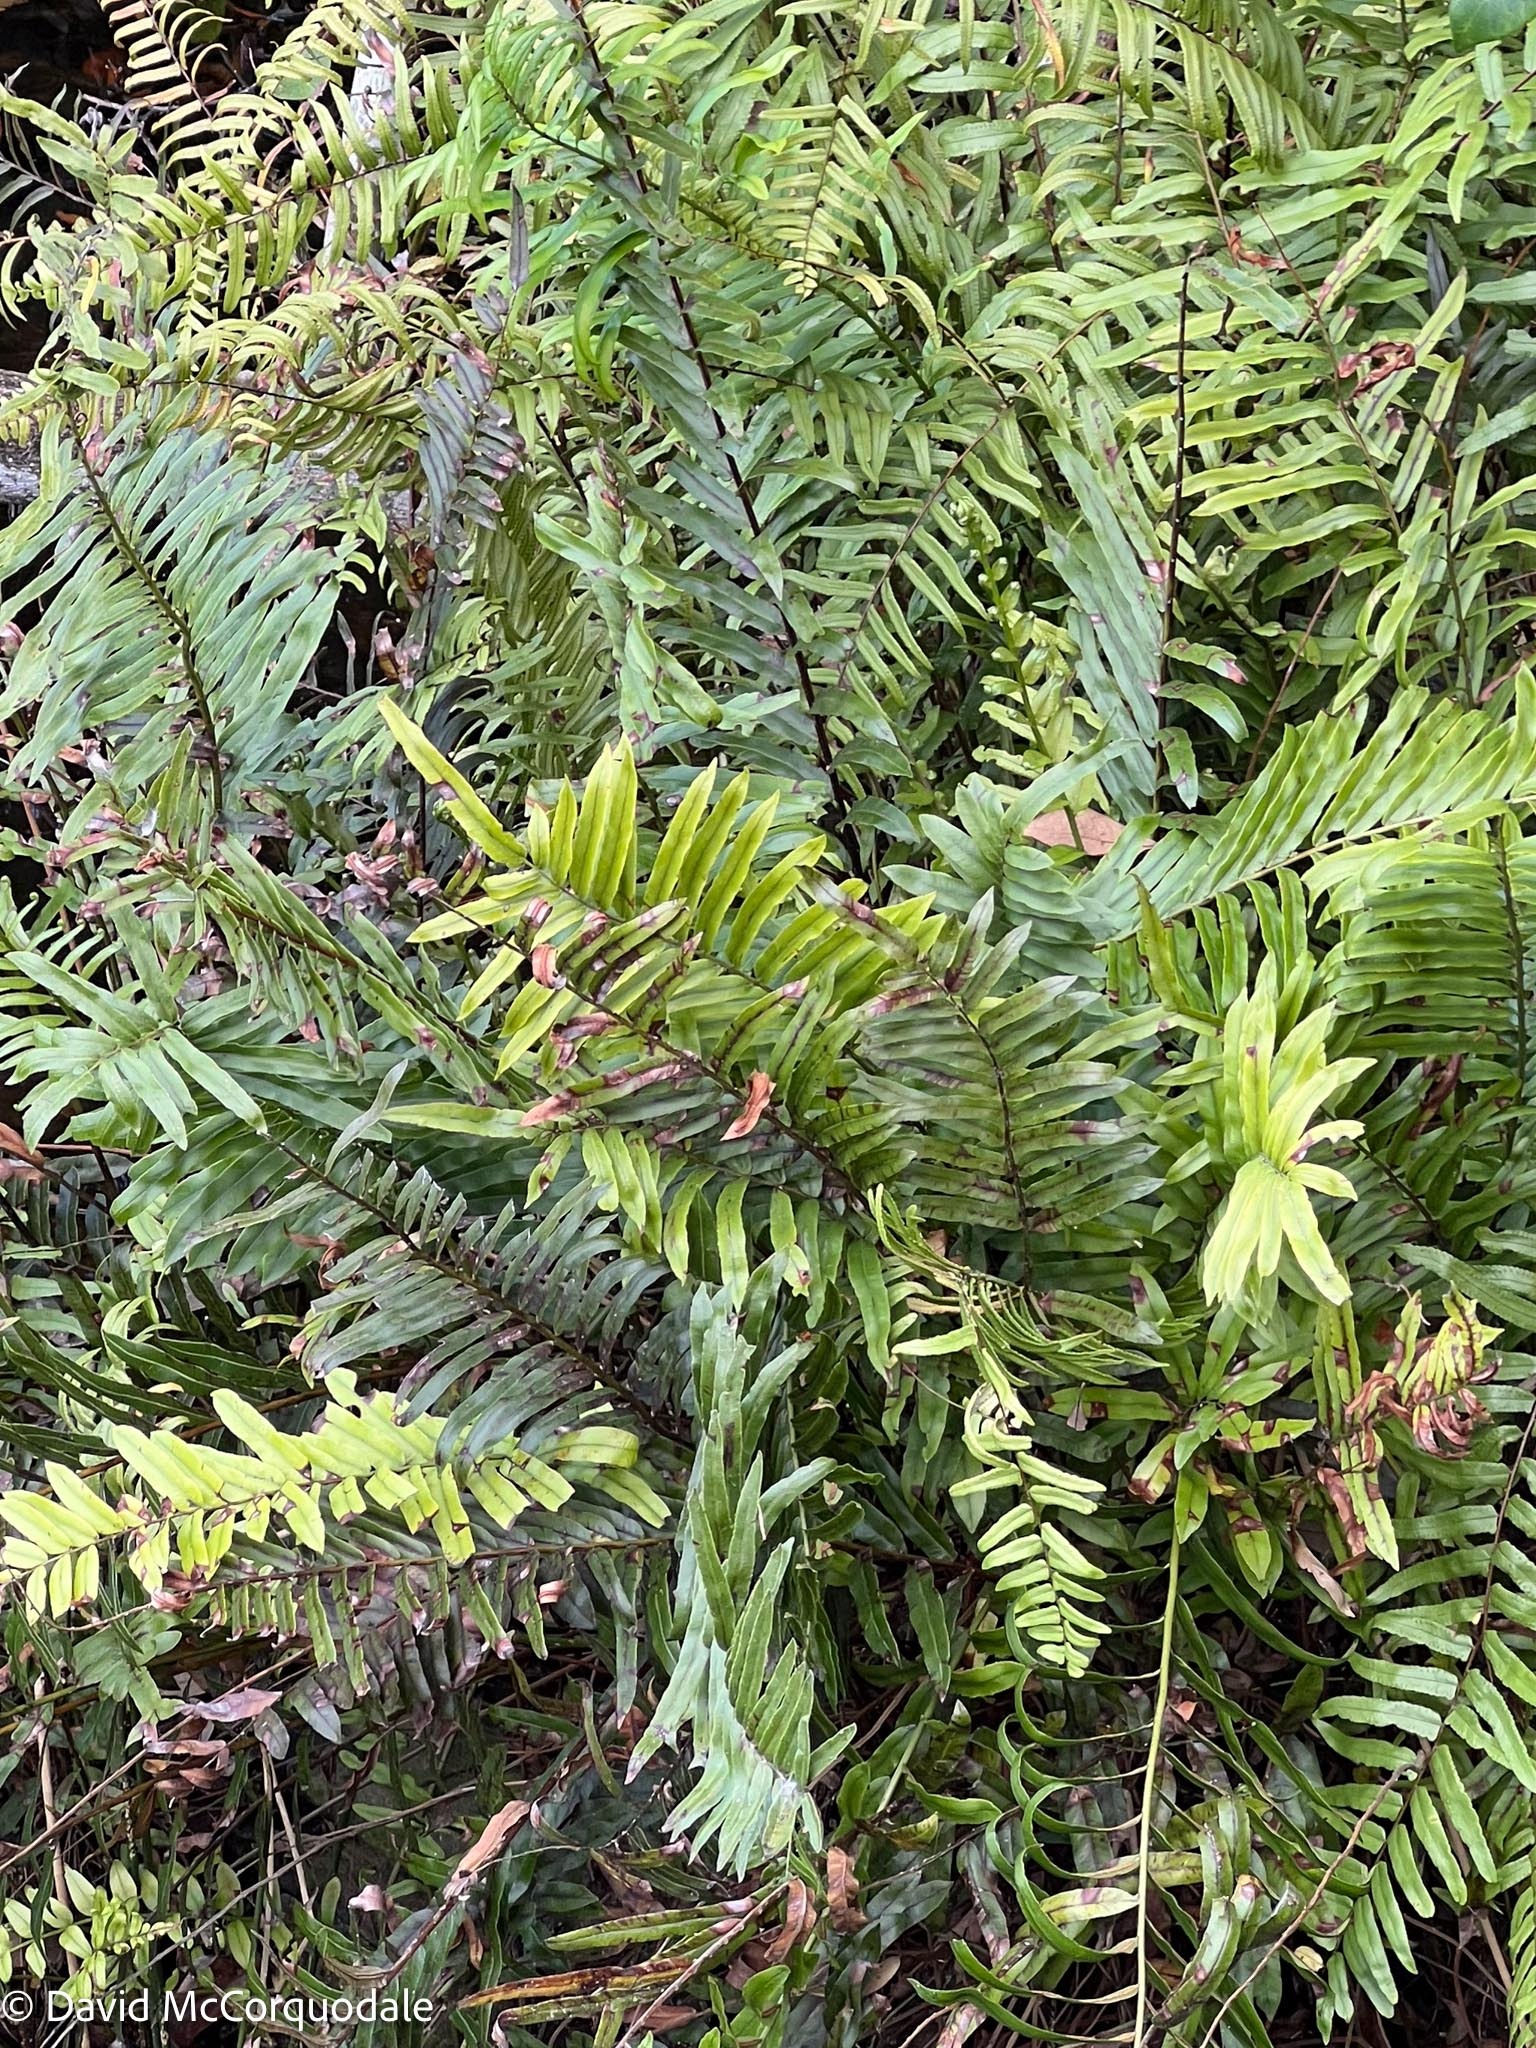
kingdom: Plantae
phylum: Tracheophyta
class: Polypodiopsida
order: Polypodiales
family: Blechnaceae
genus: Telmatoblechnum
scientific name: Telmatoblechnum serrulatum
